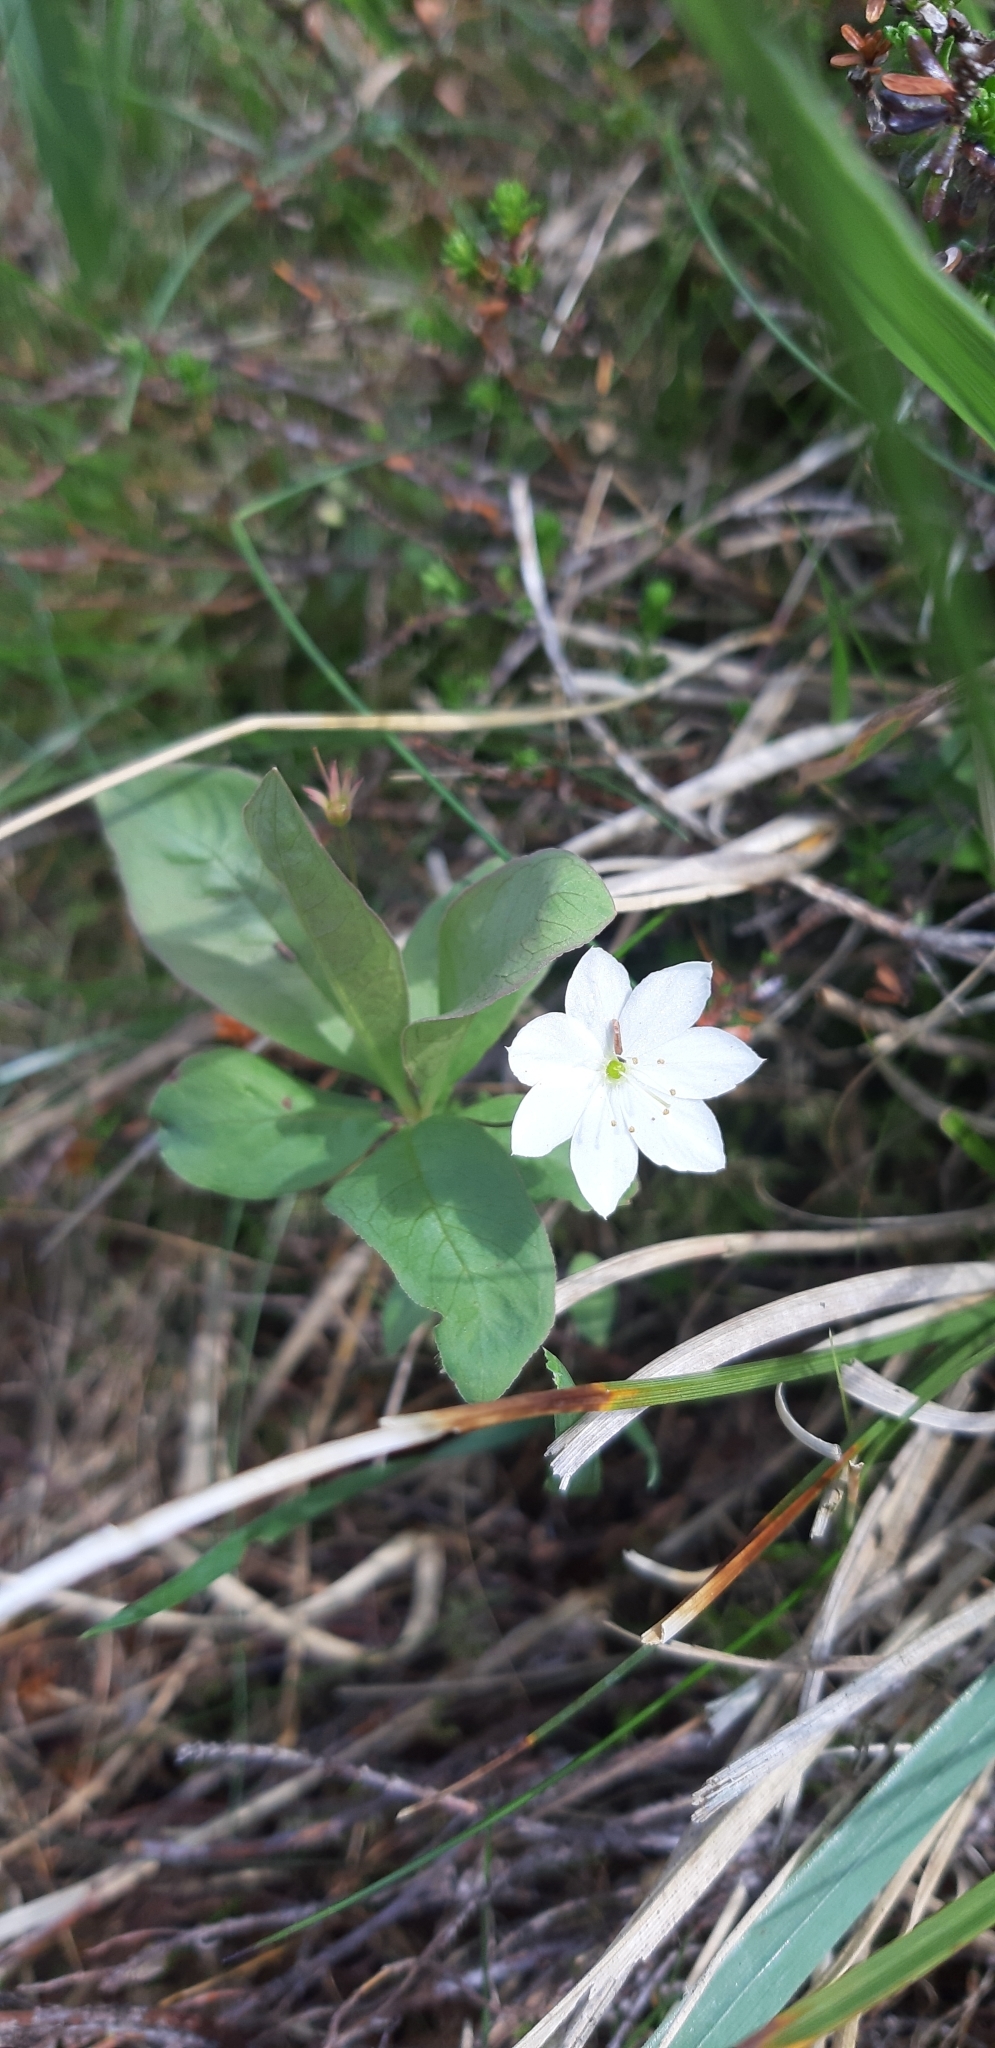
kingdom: Plantae
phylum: Tracheophyta
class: Magnoliopsida
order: Ericales
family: Primulaceae
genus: Lysimachia
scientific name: Lysimachia europaea
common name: Arctic starflower
